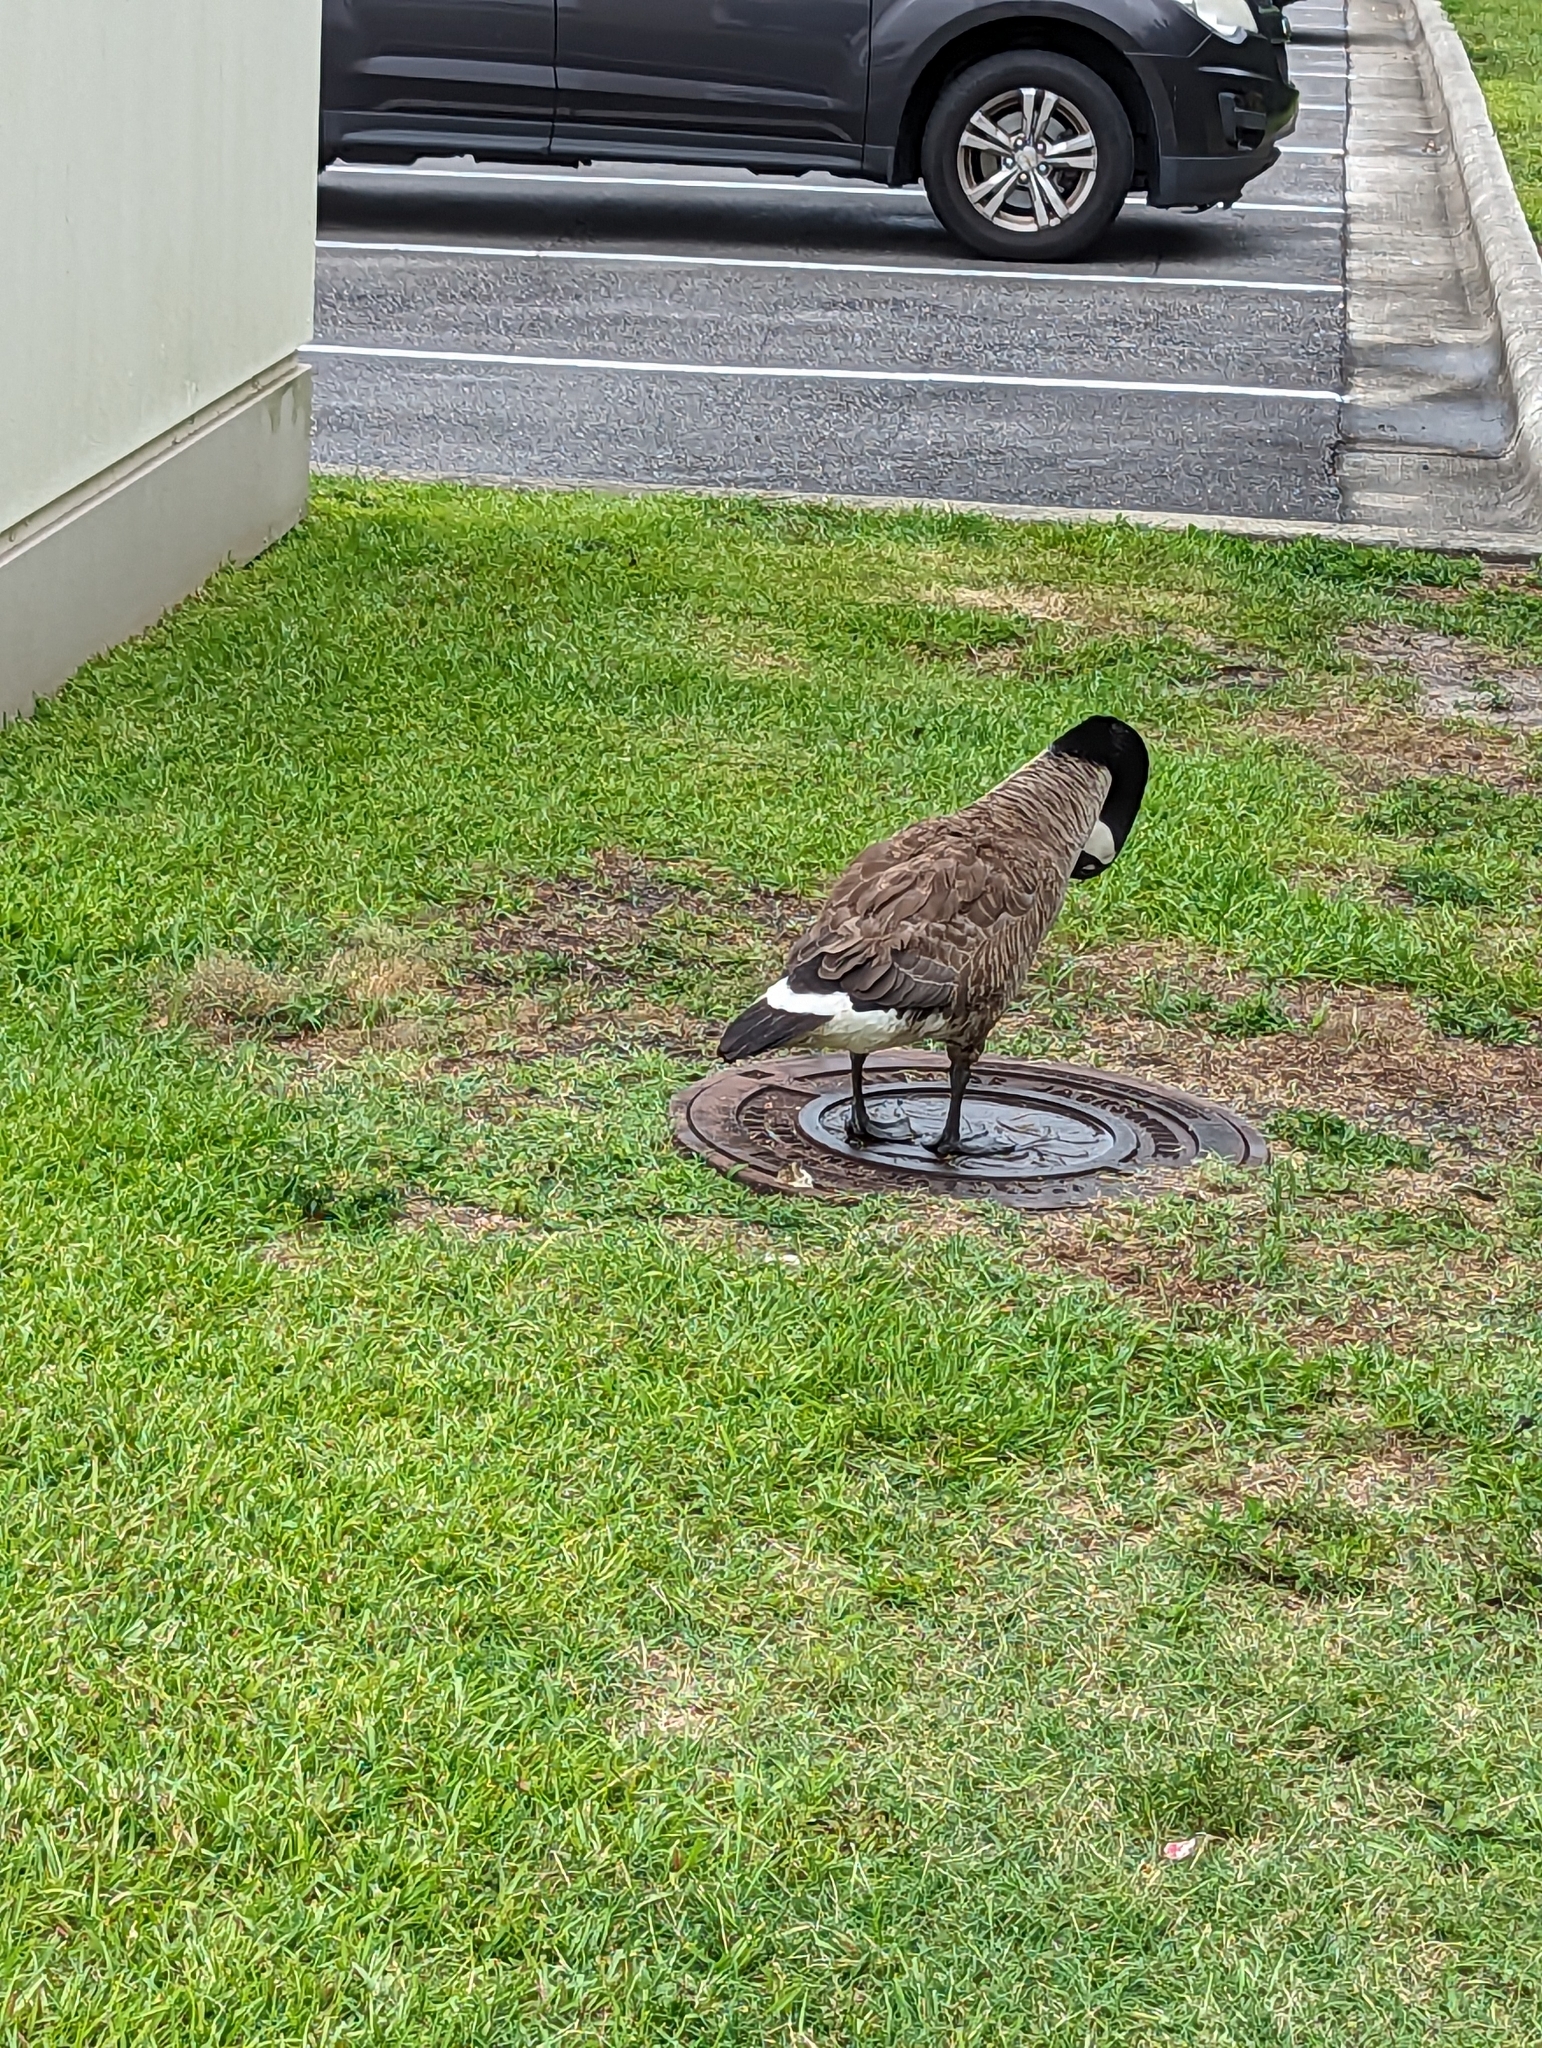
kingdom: Animalia
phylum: Chordata
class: Aves
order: Anseriformes
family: Anatidae
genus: Branta
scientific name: Branta canadensis
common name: Canada goose
